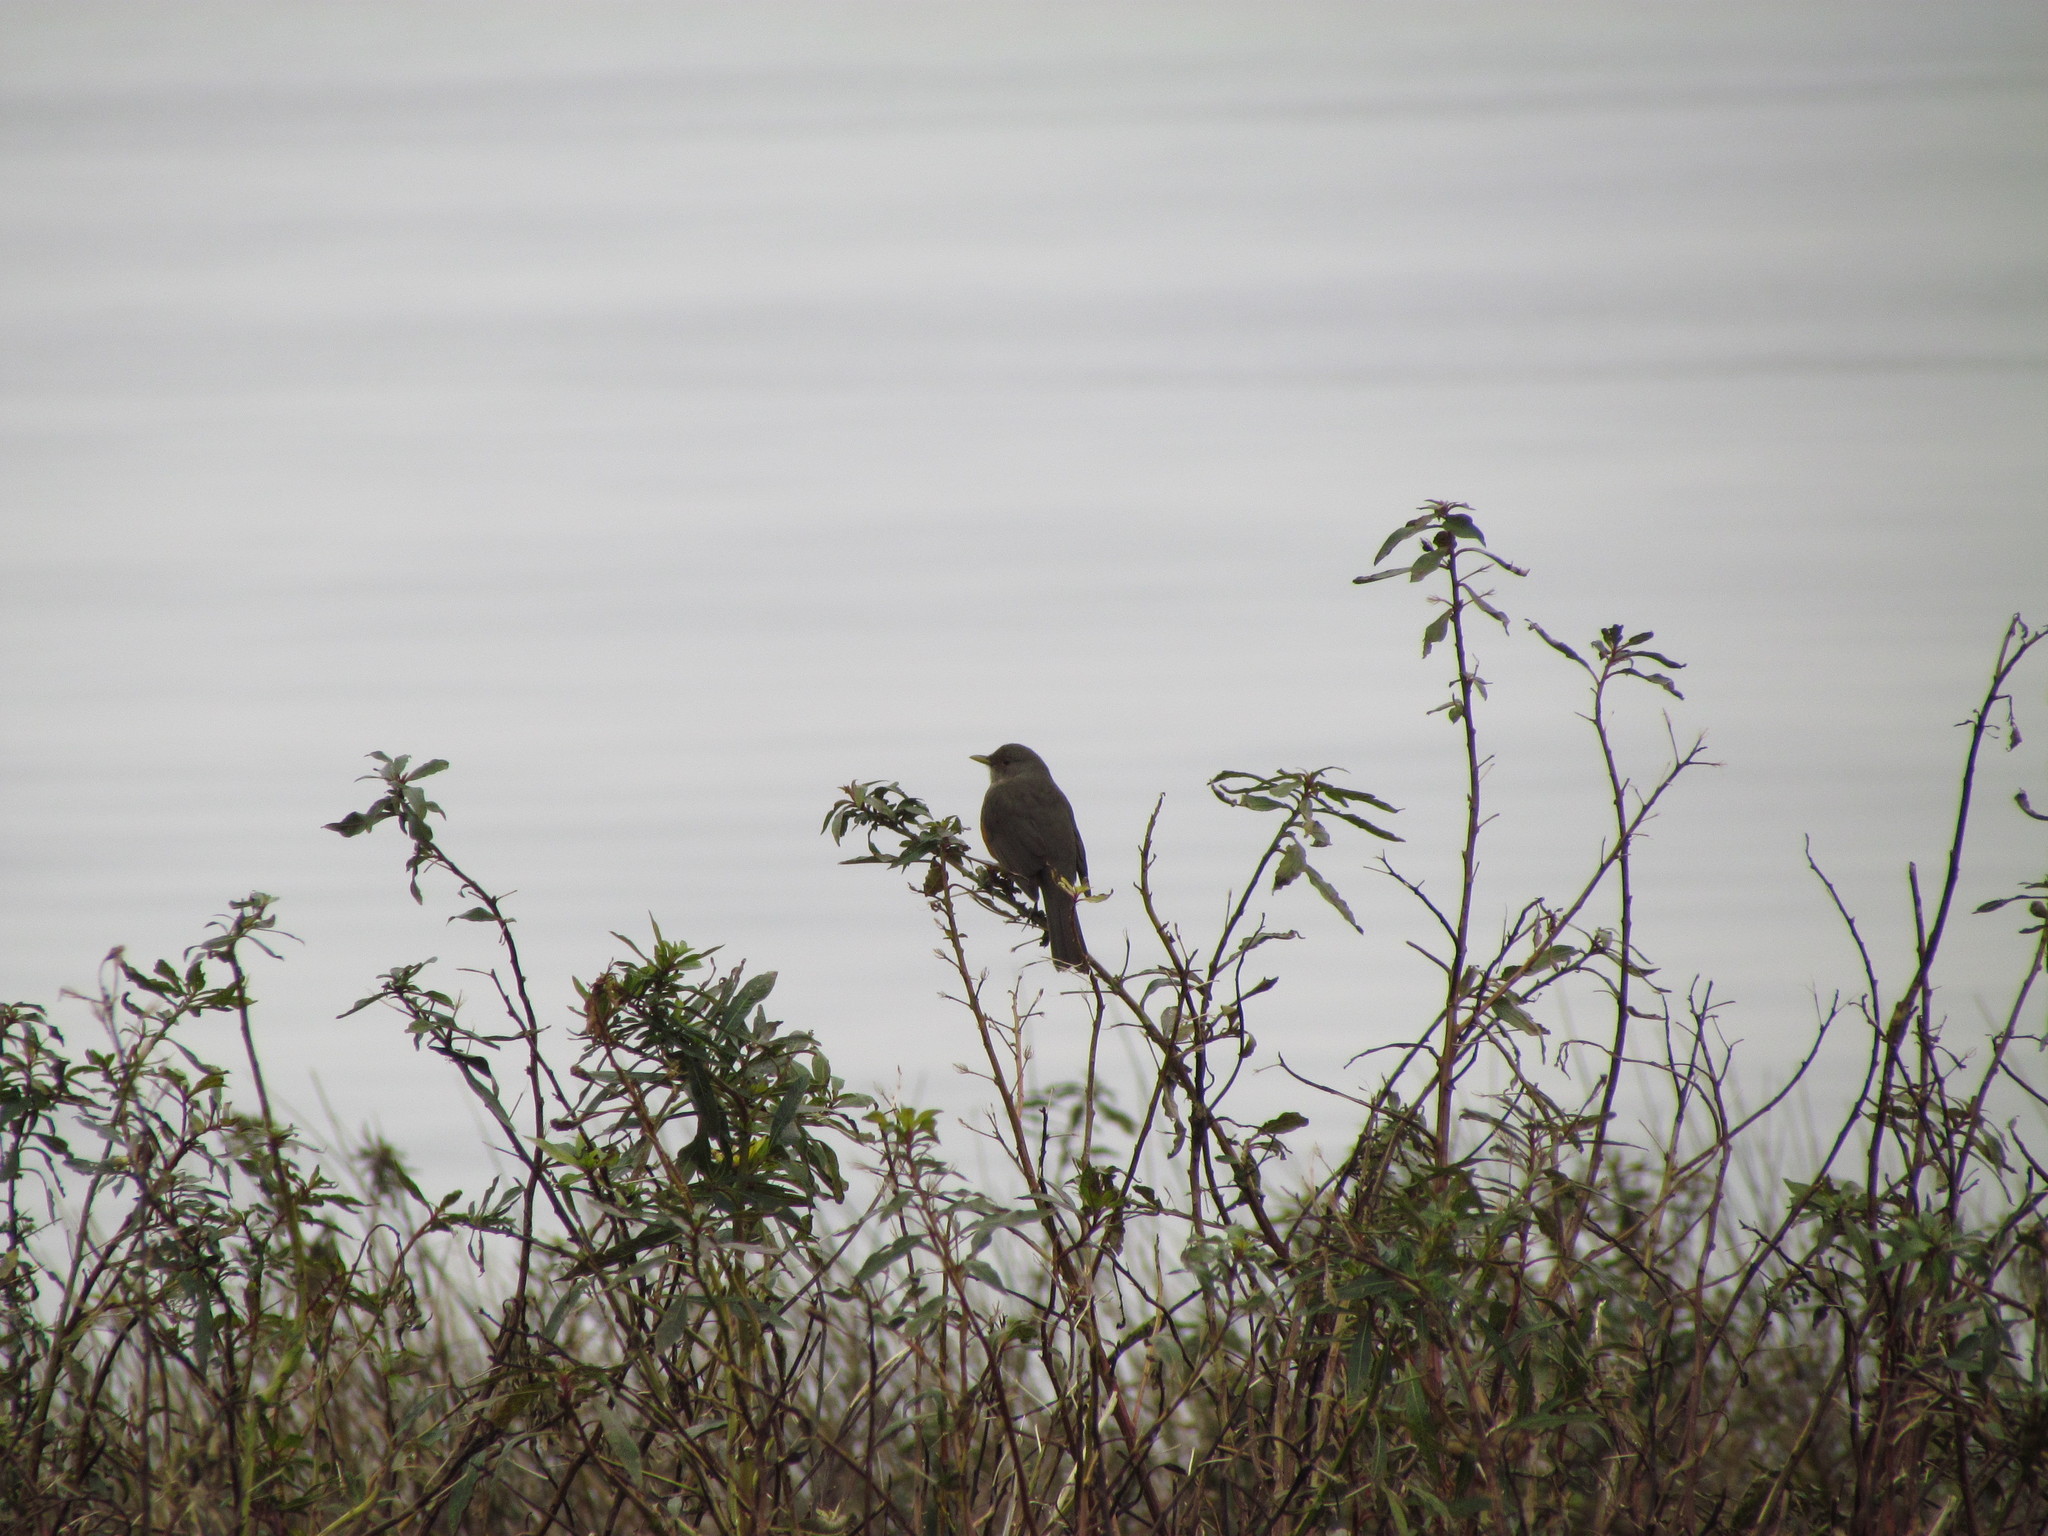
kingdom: Animalia
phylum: Chordata
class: Aves
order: Passeriformes
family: Turdidae
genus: Turdus
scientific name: Turdus rufiventris
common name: Rufous-bellied thrush
